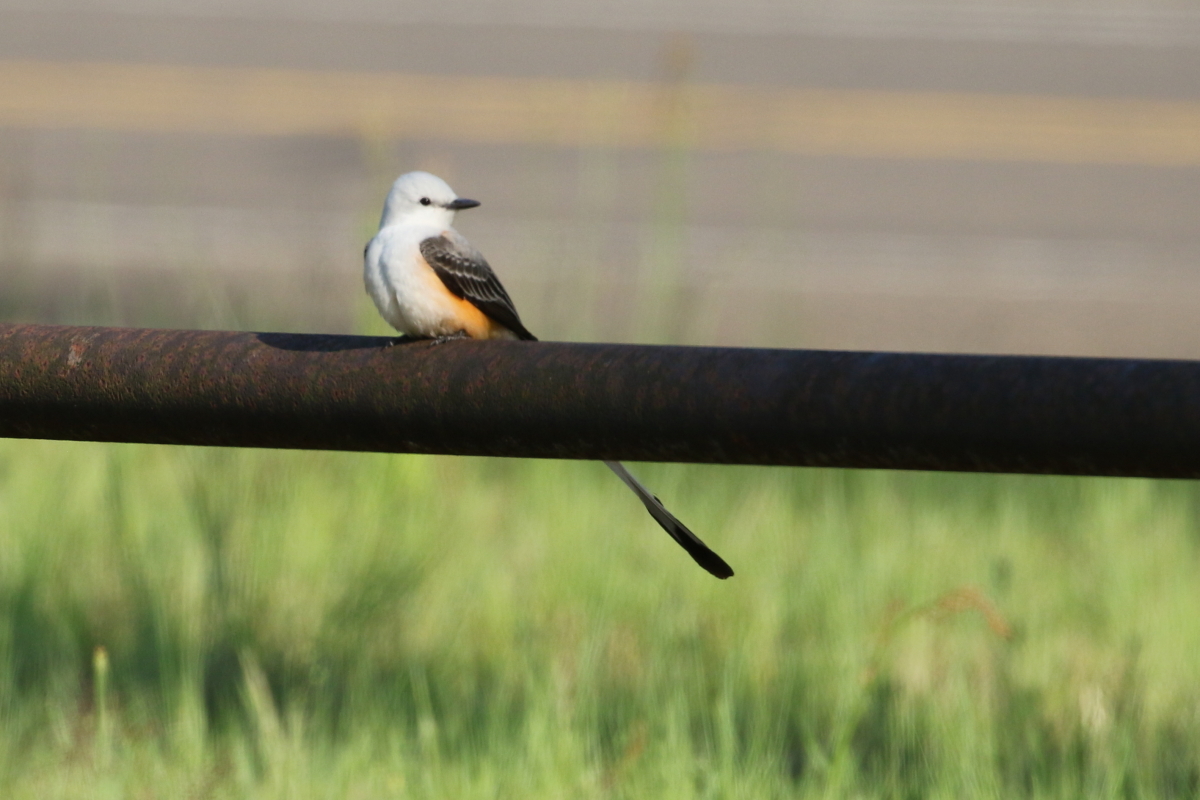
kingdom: Animalia
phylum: Chordata
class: Aves
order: Passeriformes
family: Tyrannidae
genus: Tyrannus
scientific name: Tyrannus forficatus
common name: Scissor-tailed flycatcher
